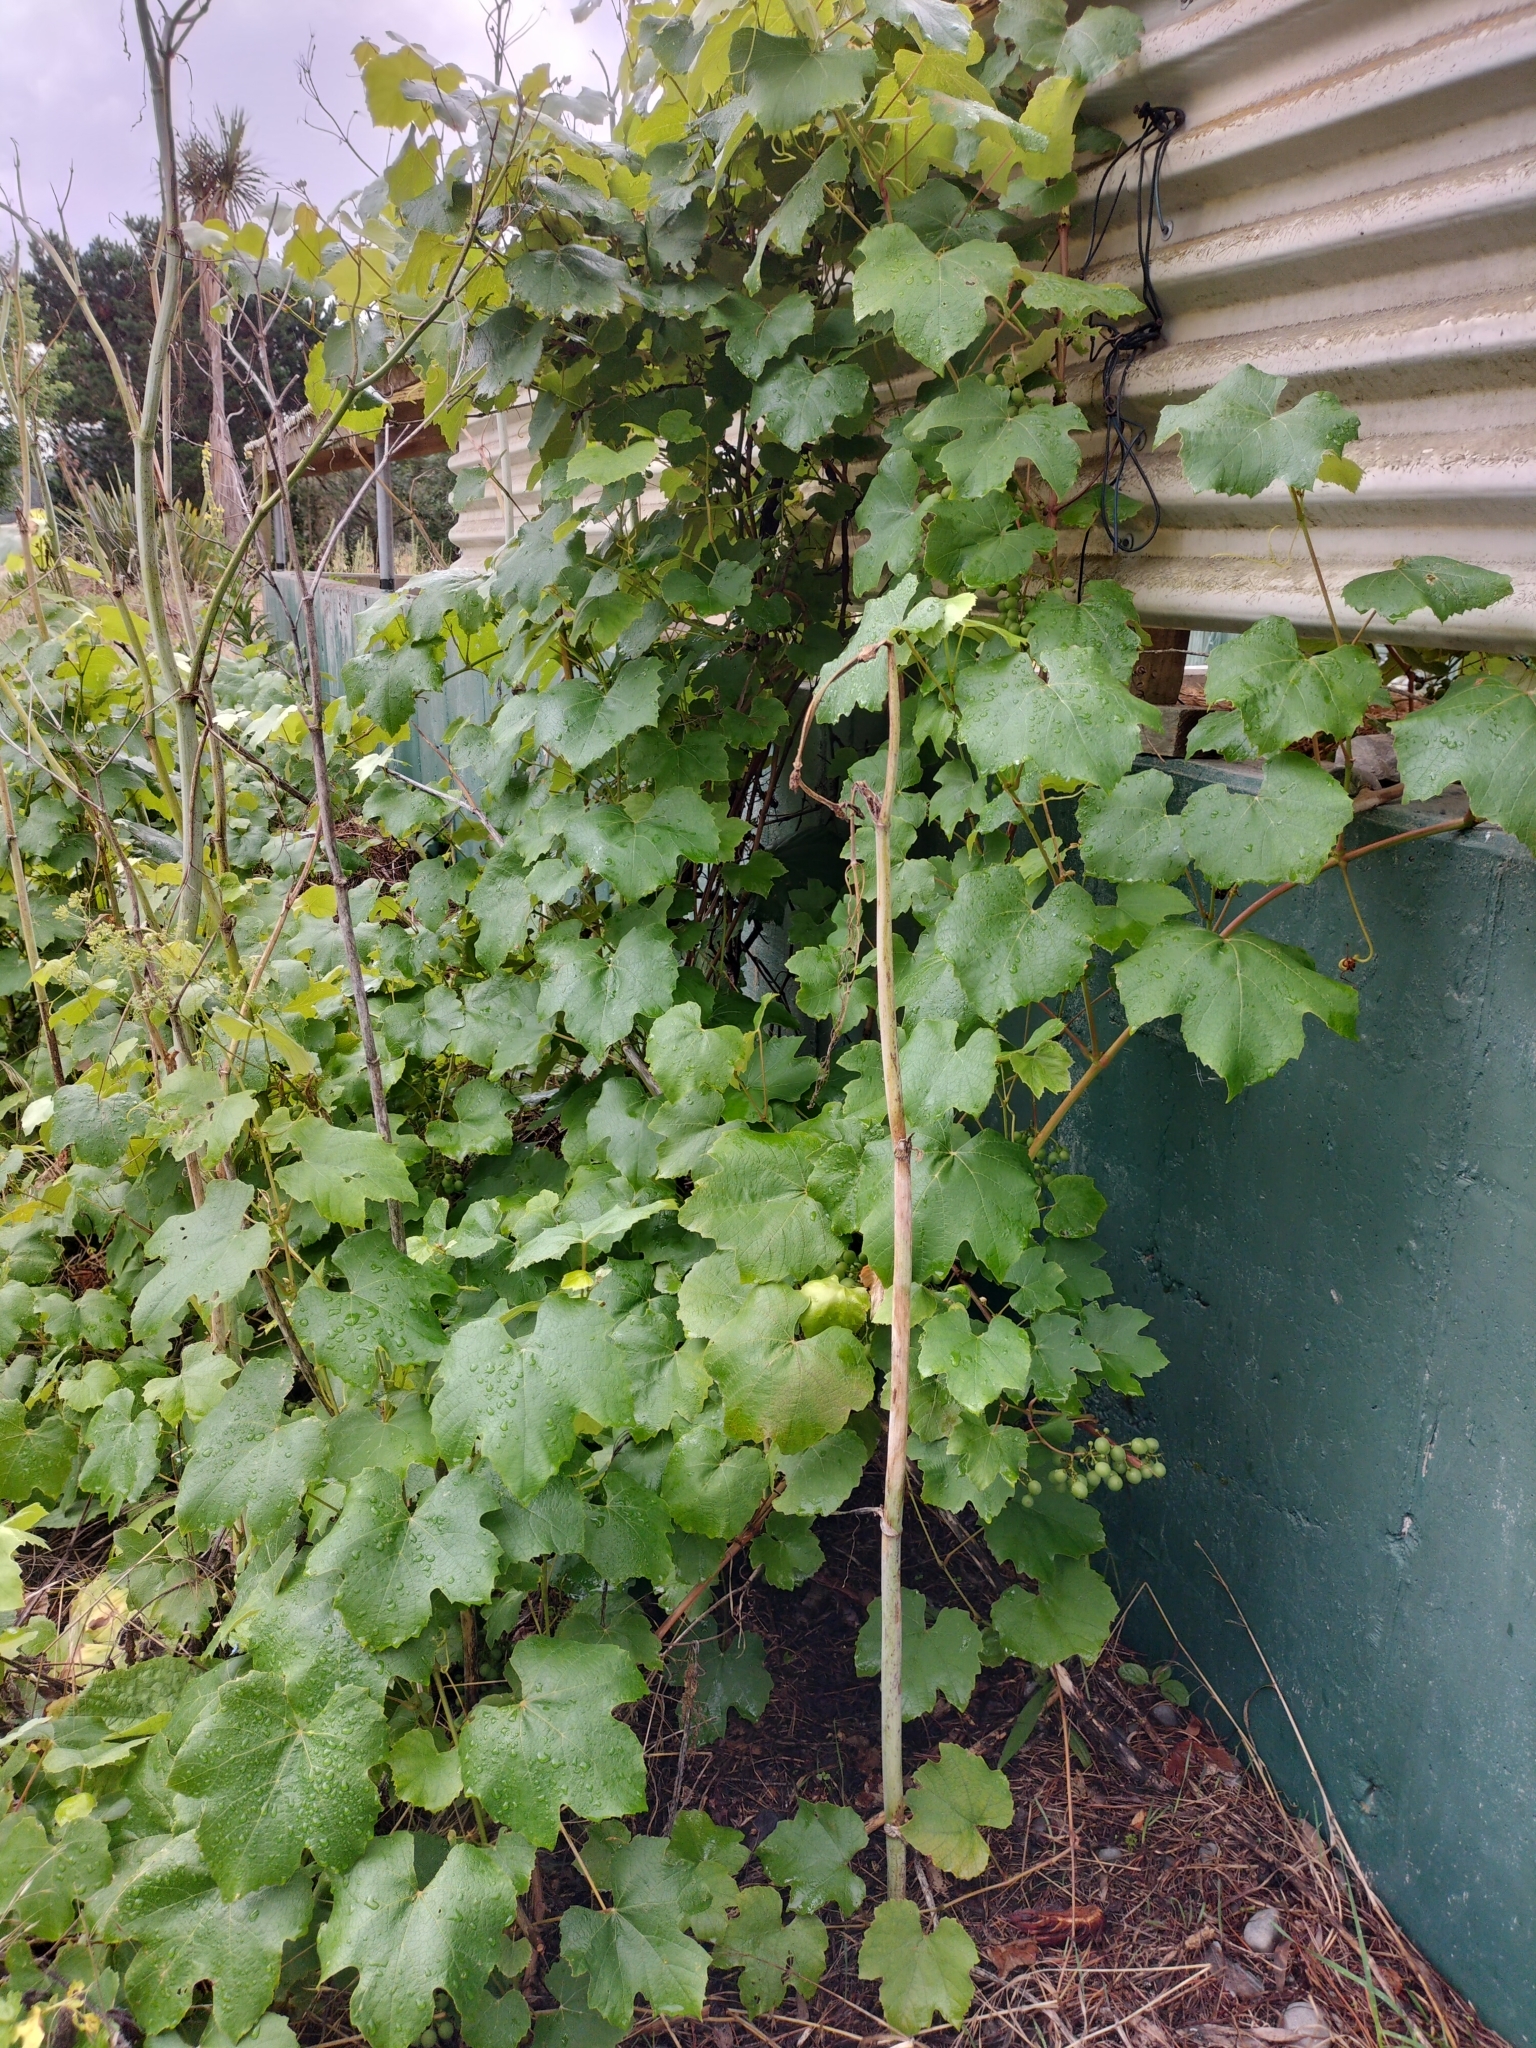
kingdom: Plantae
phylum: Tracheophyta
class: Magnoliopsida
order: Vitales
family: Vitaceae
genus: Vitis
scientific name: Vitis vinifera
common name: Grape-vine
